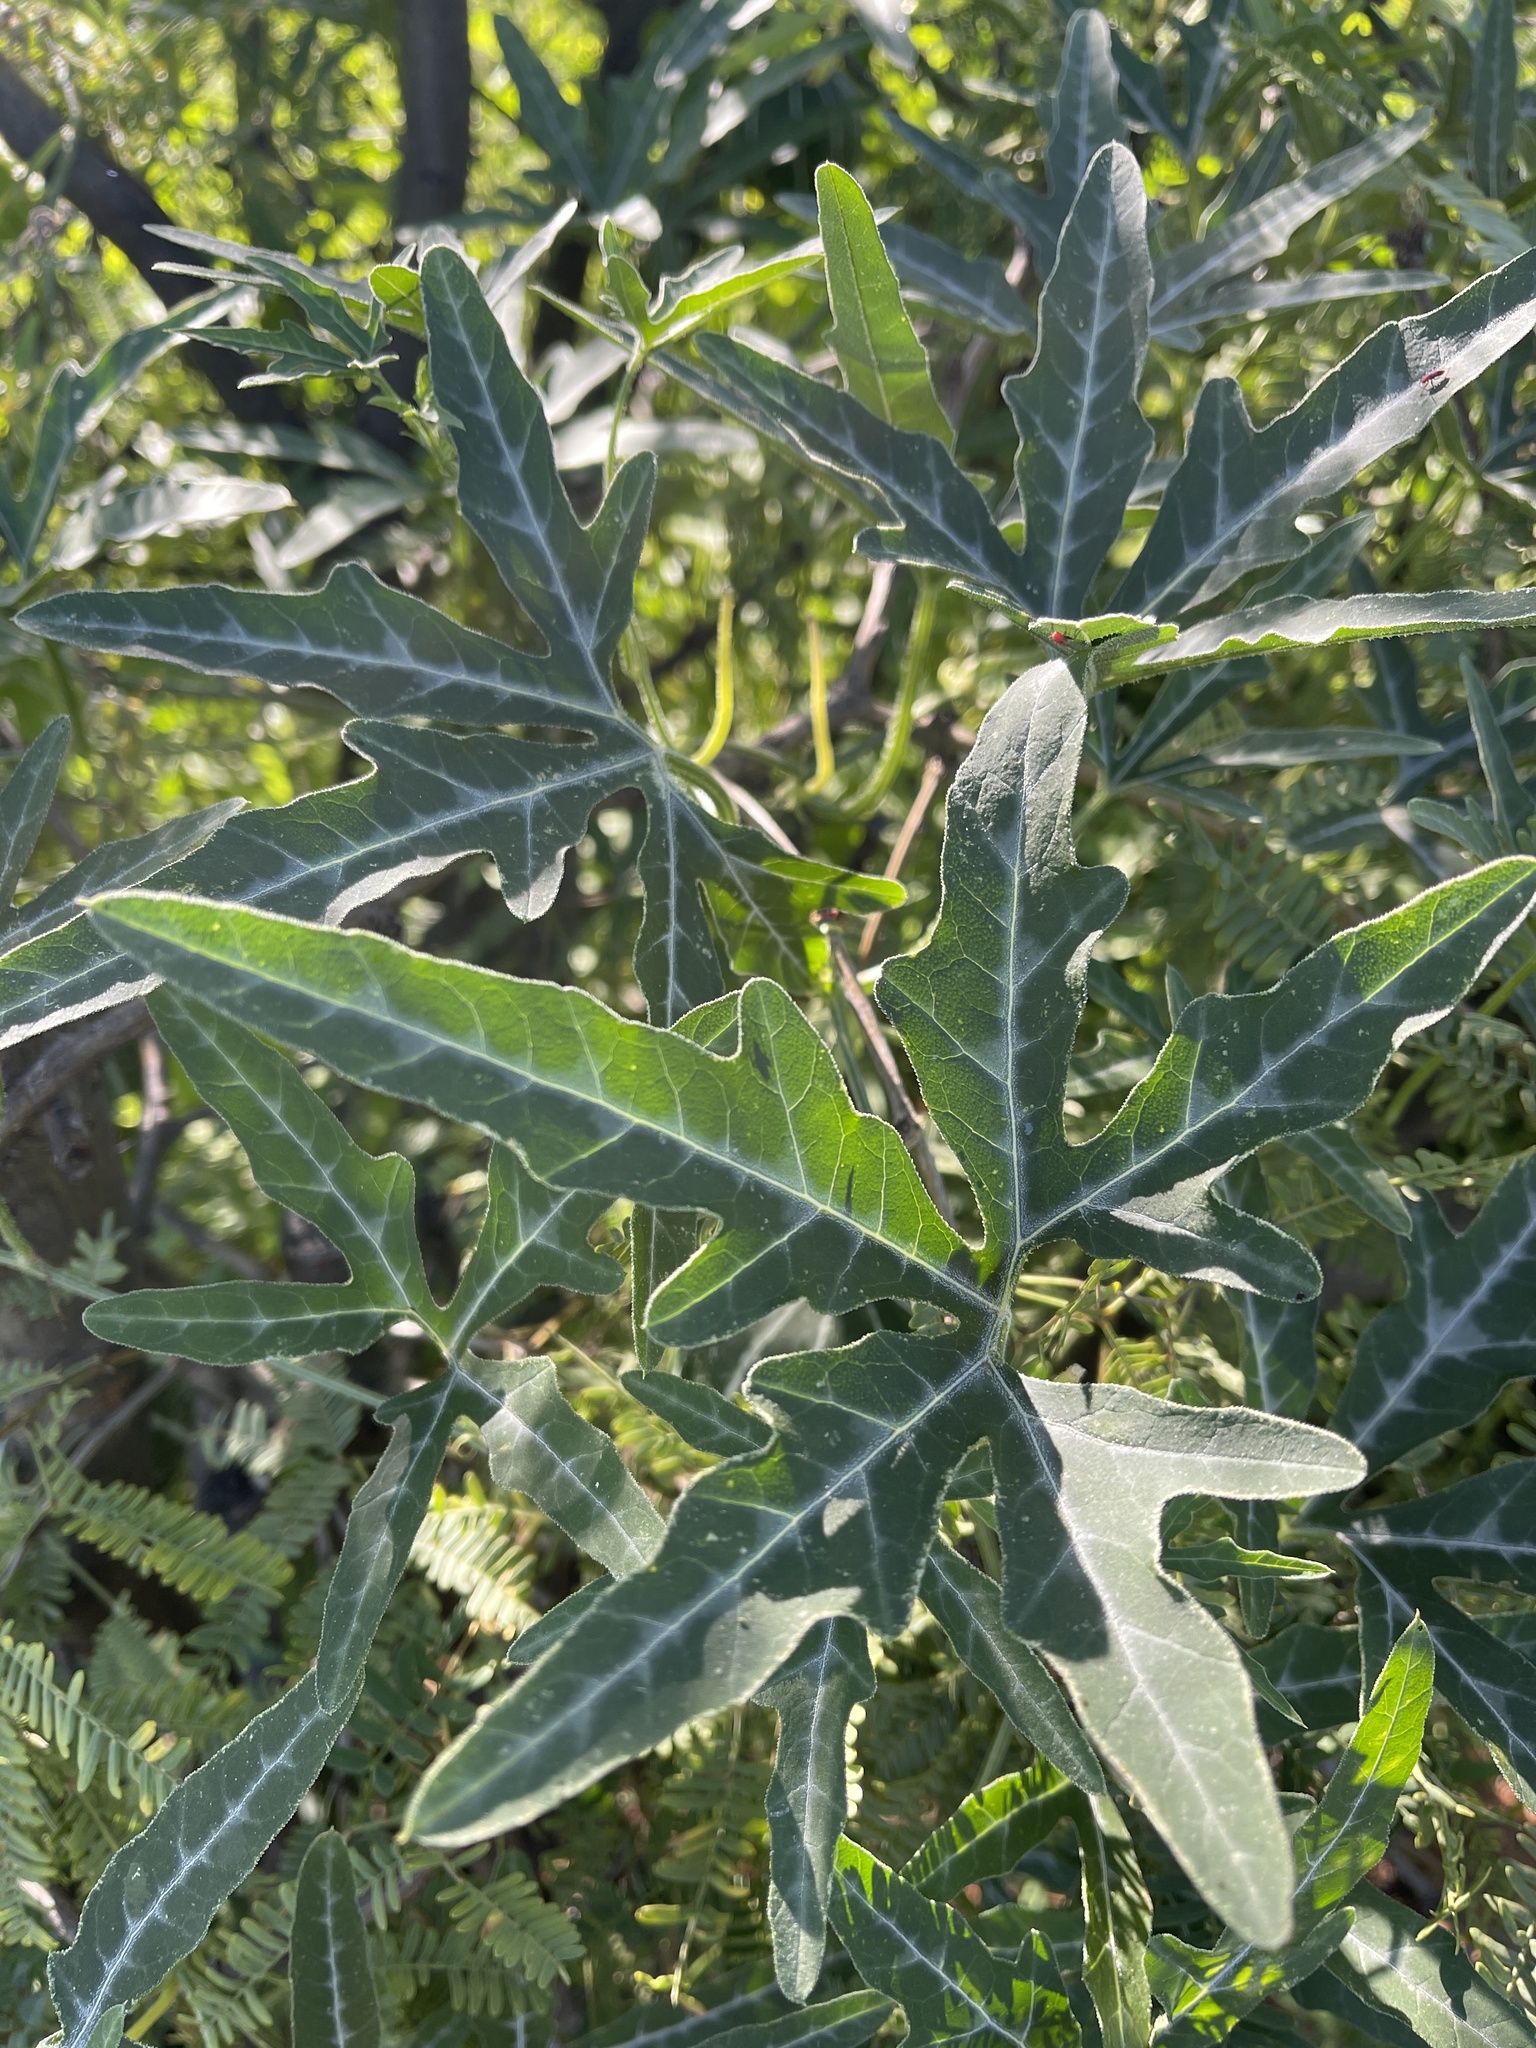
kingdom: Plantae
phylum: Tracheophyta
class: Magnoliopsida
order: Cucurbitales
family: Cucurbitaceae
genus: Cucurbita
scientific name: Cucurbita digitata
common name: Finger-leaf gourd
